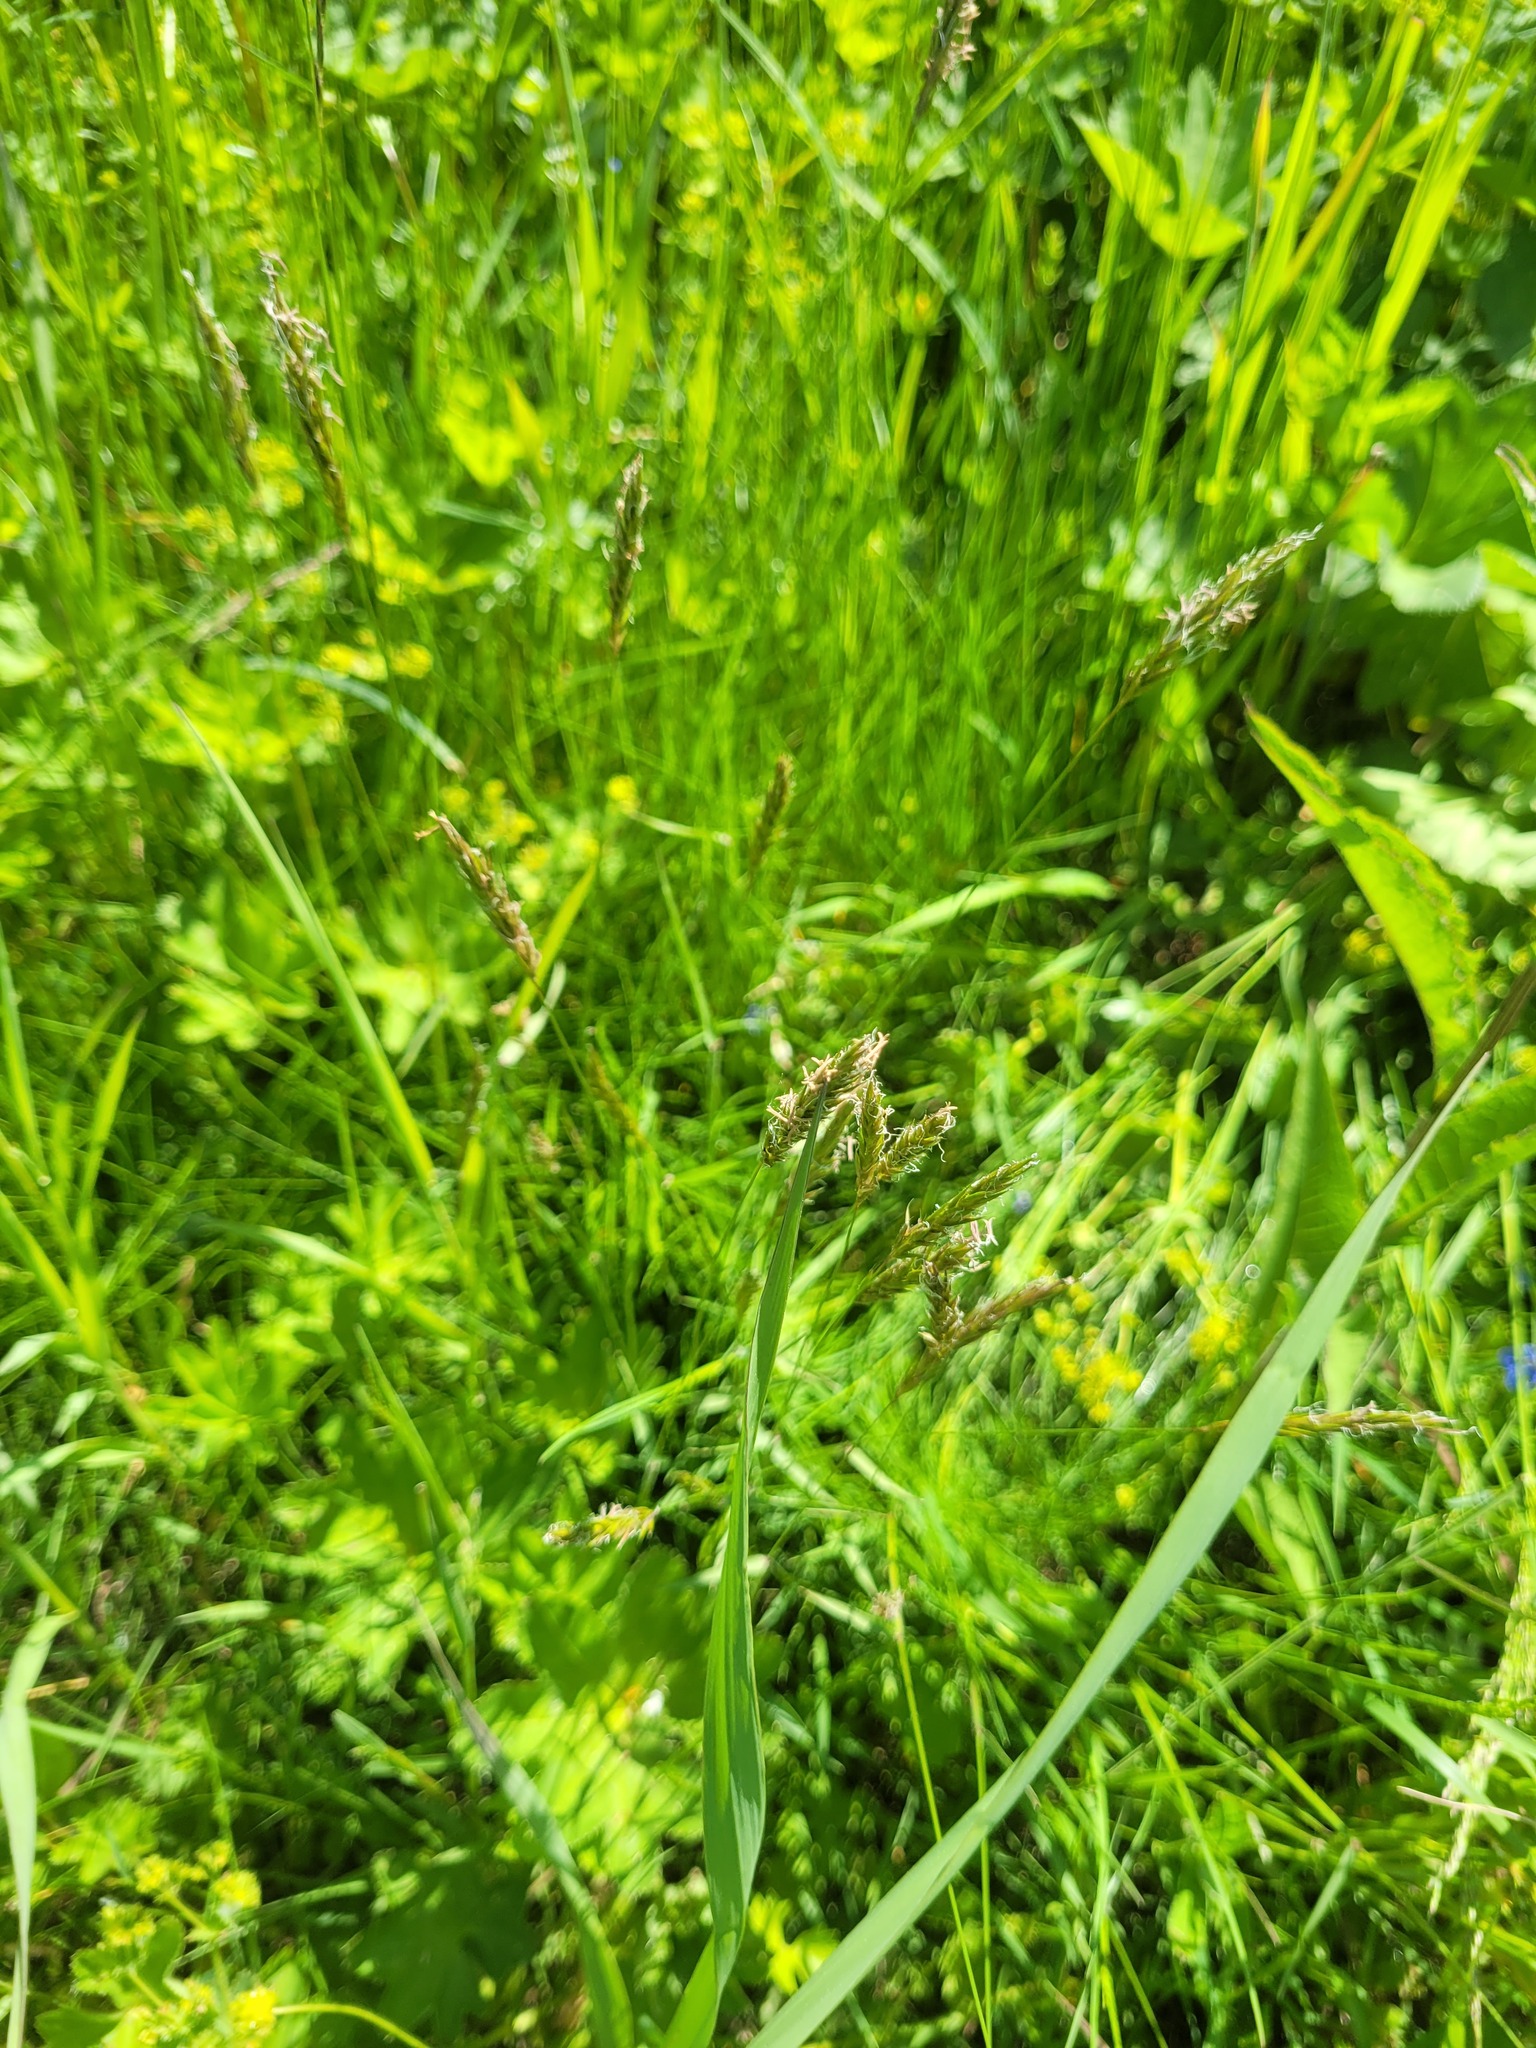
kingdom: Plantae
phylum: Tracheophyta
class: Liliopsida
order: Poales
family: Poaceae
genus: Anthoxanthum
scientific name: Anthoxanthum odoratum
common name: Sweet vernalgrass
